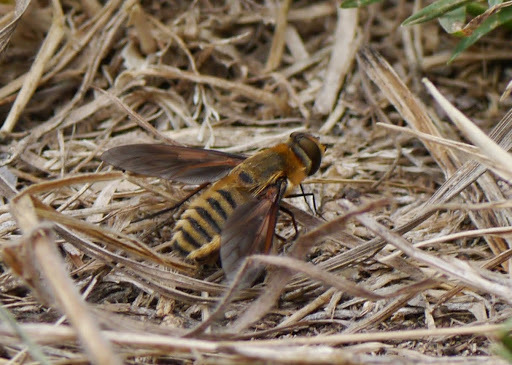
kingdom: Animalia
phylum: Arthropoda
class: Insecta
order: Diptera
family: Bombyliidae
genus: Poecilanthrax
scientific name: Poecilanthrax lucifer
